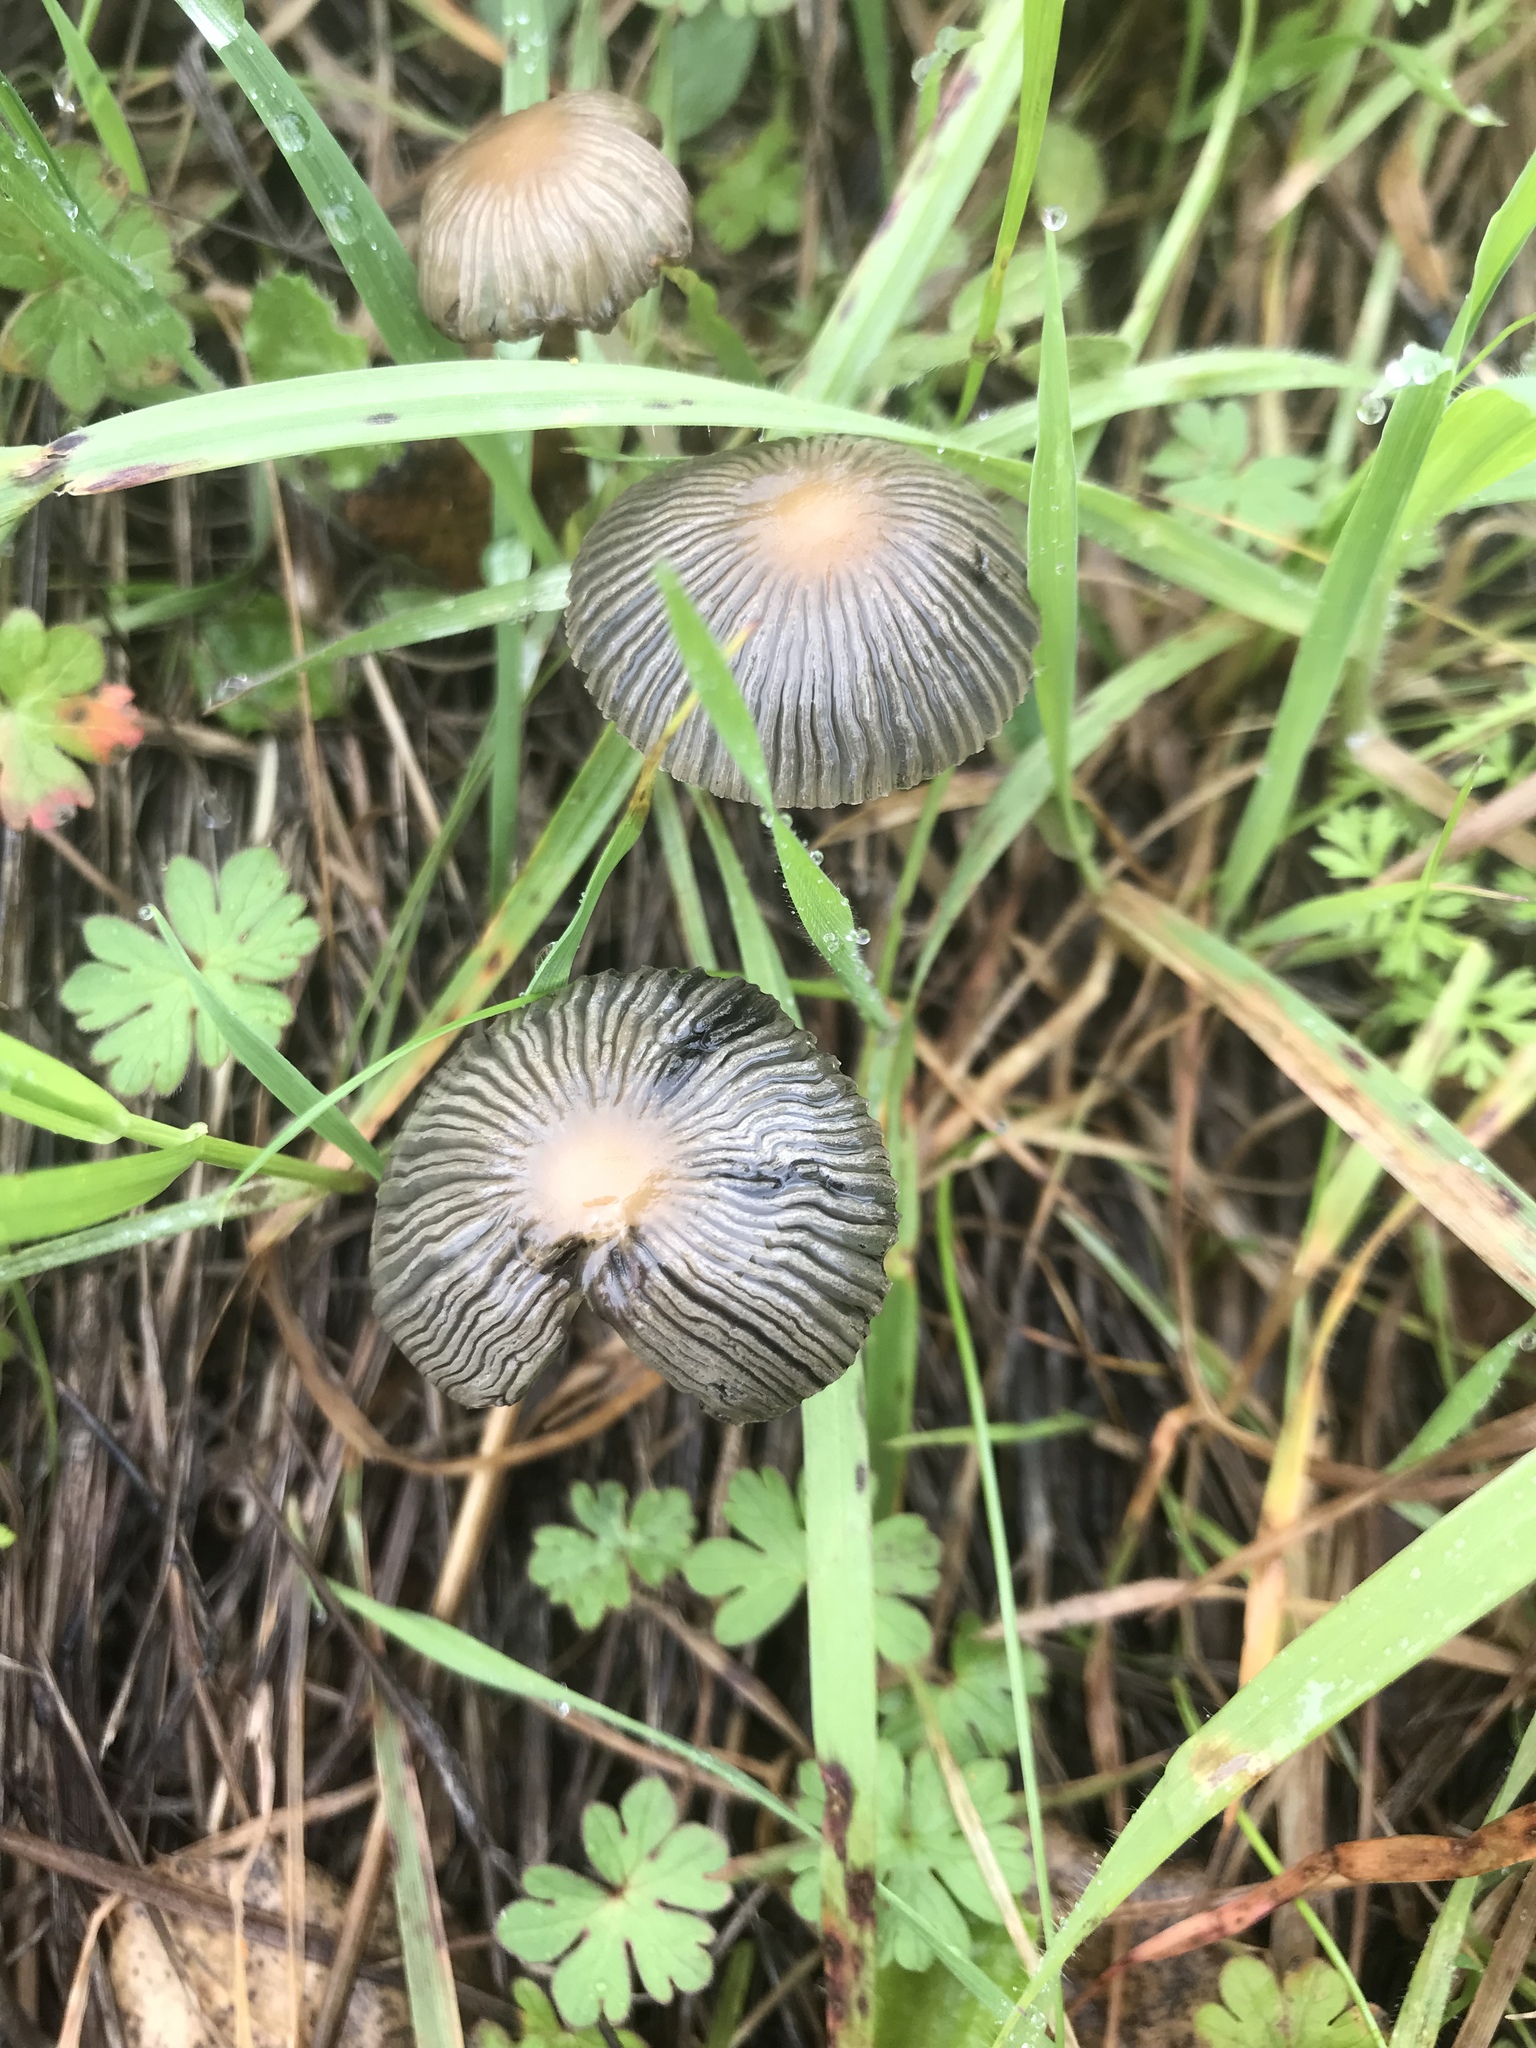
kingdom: Fungi
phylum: Basidiomycota
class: Agaricomycetes
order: Agaricales
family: Psathyrellaceae
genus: Parasola
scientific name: Parasola auricoma
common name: Goldenhaired inkcap
